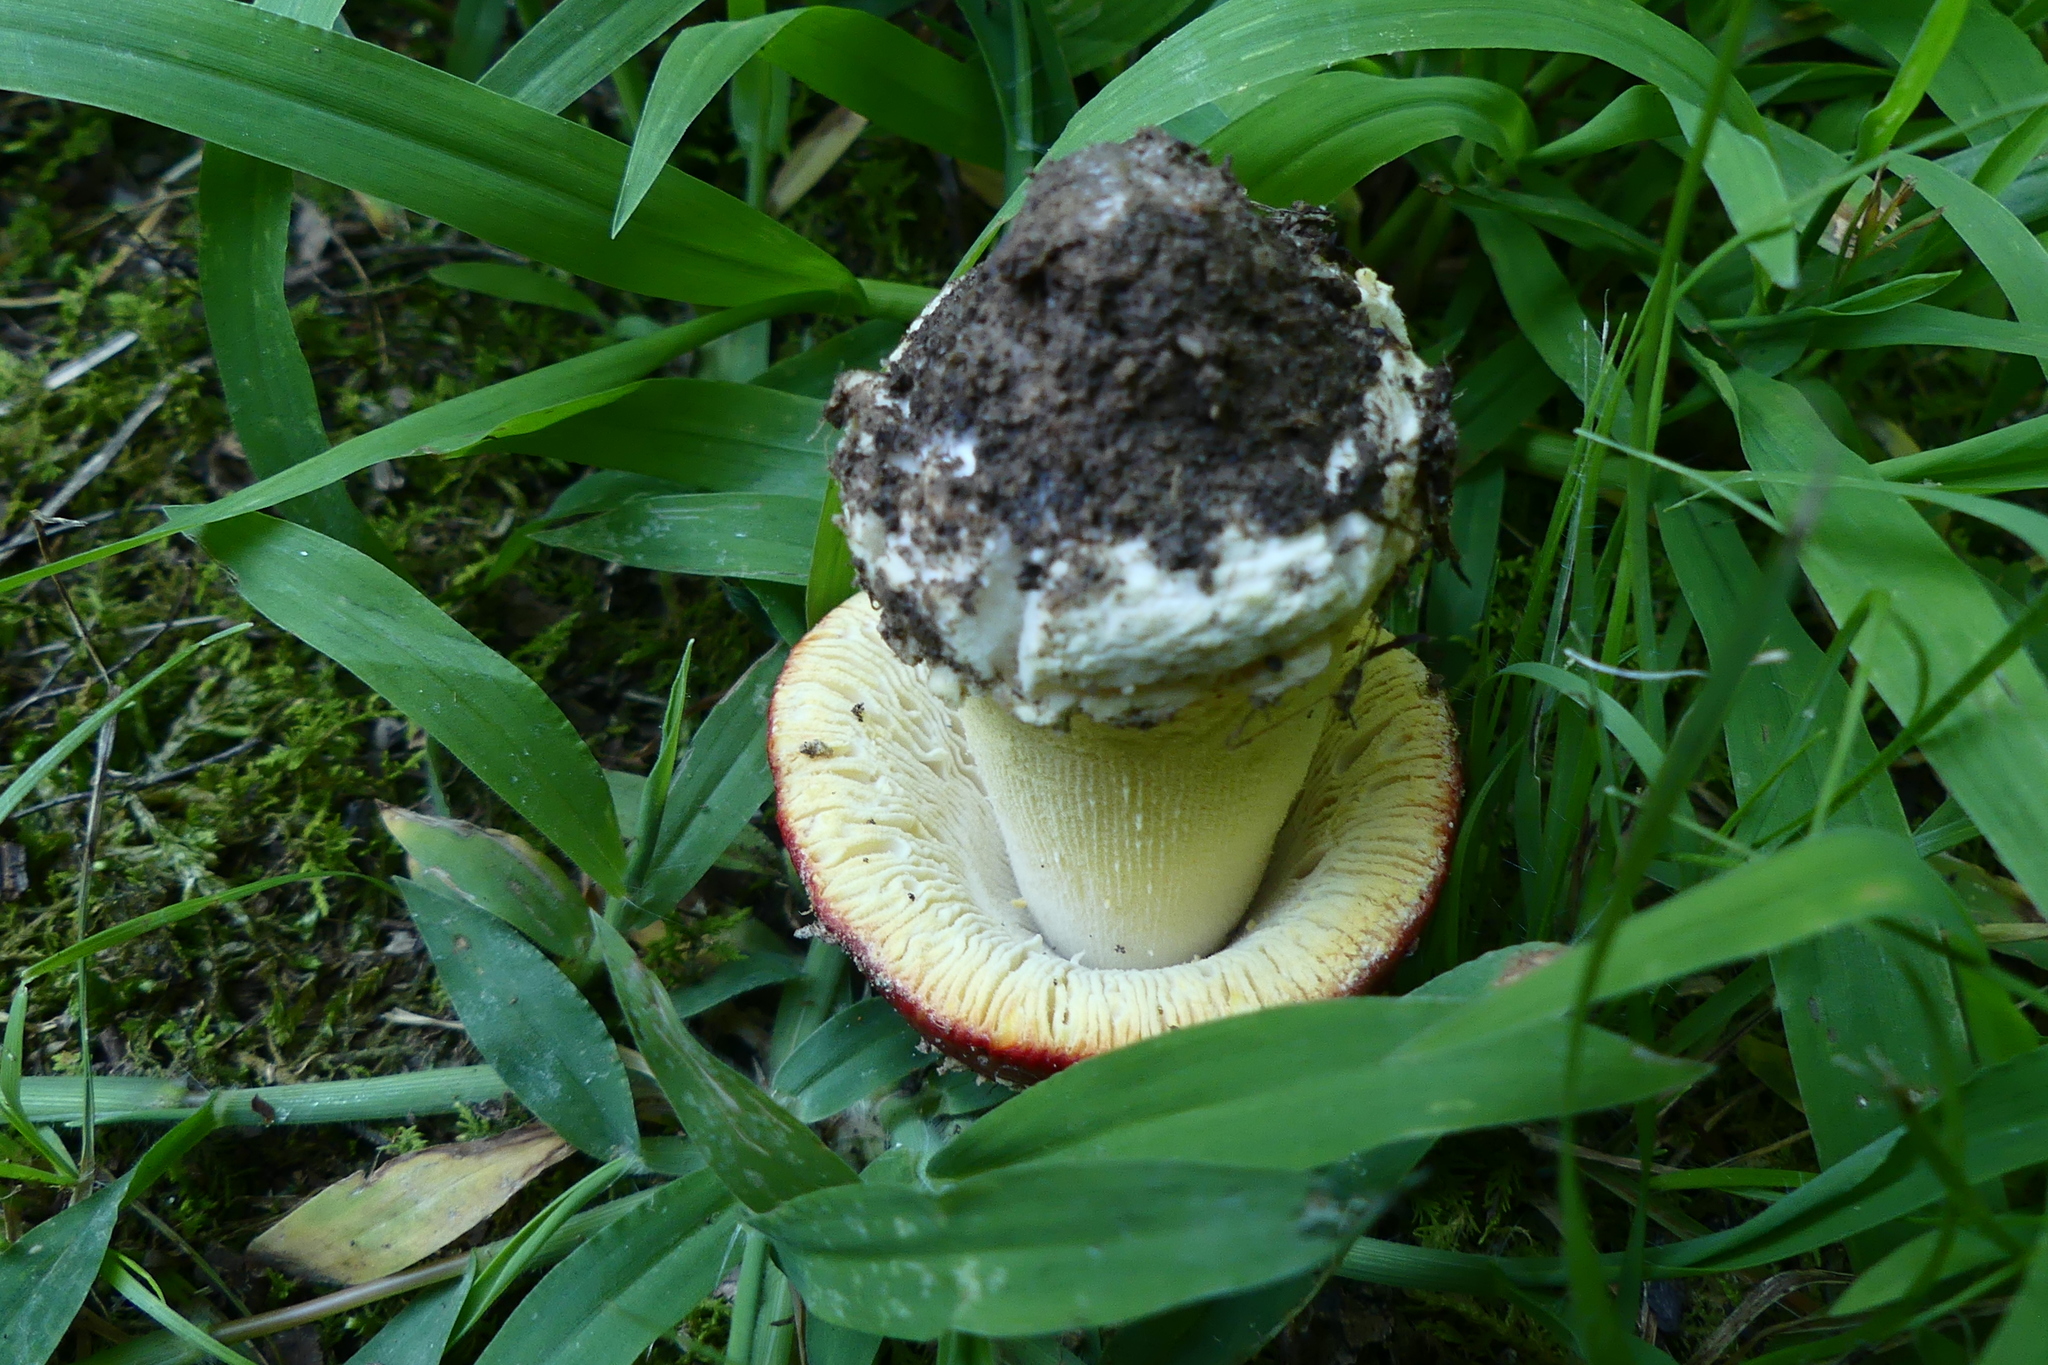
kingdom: Fungi
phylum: Basidiomycota
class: Agaricomycetes
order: Agaricales
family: Amanitaceae
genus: Amanita
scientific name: Amanita parcivolvata
